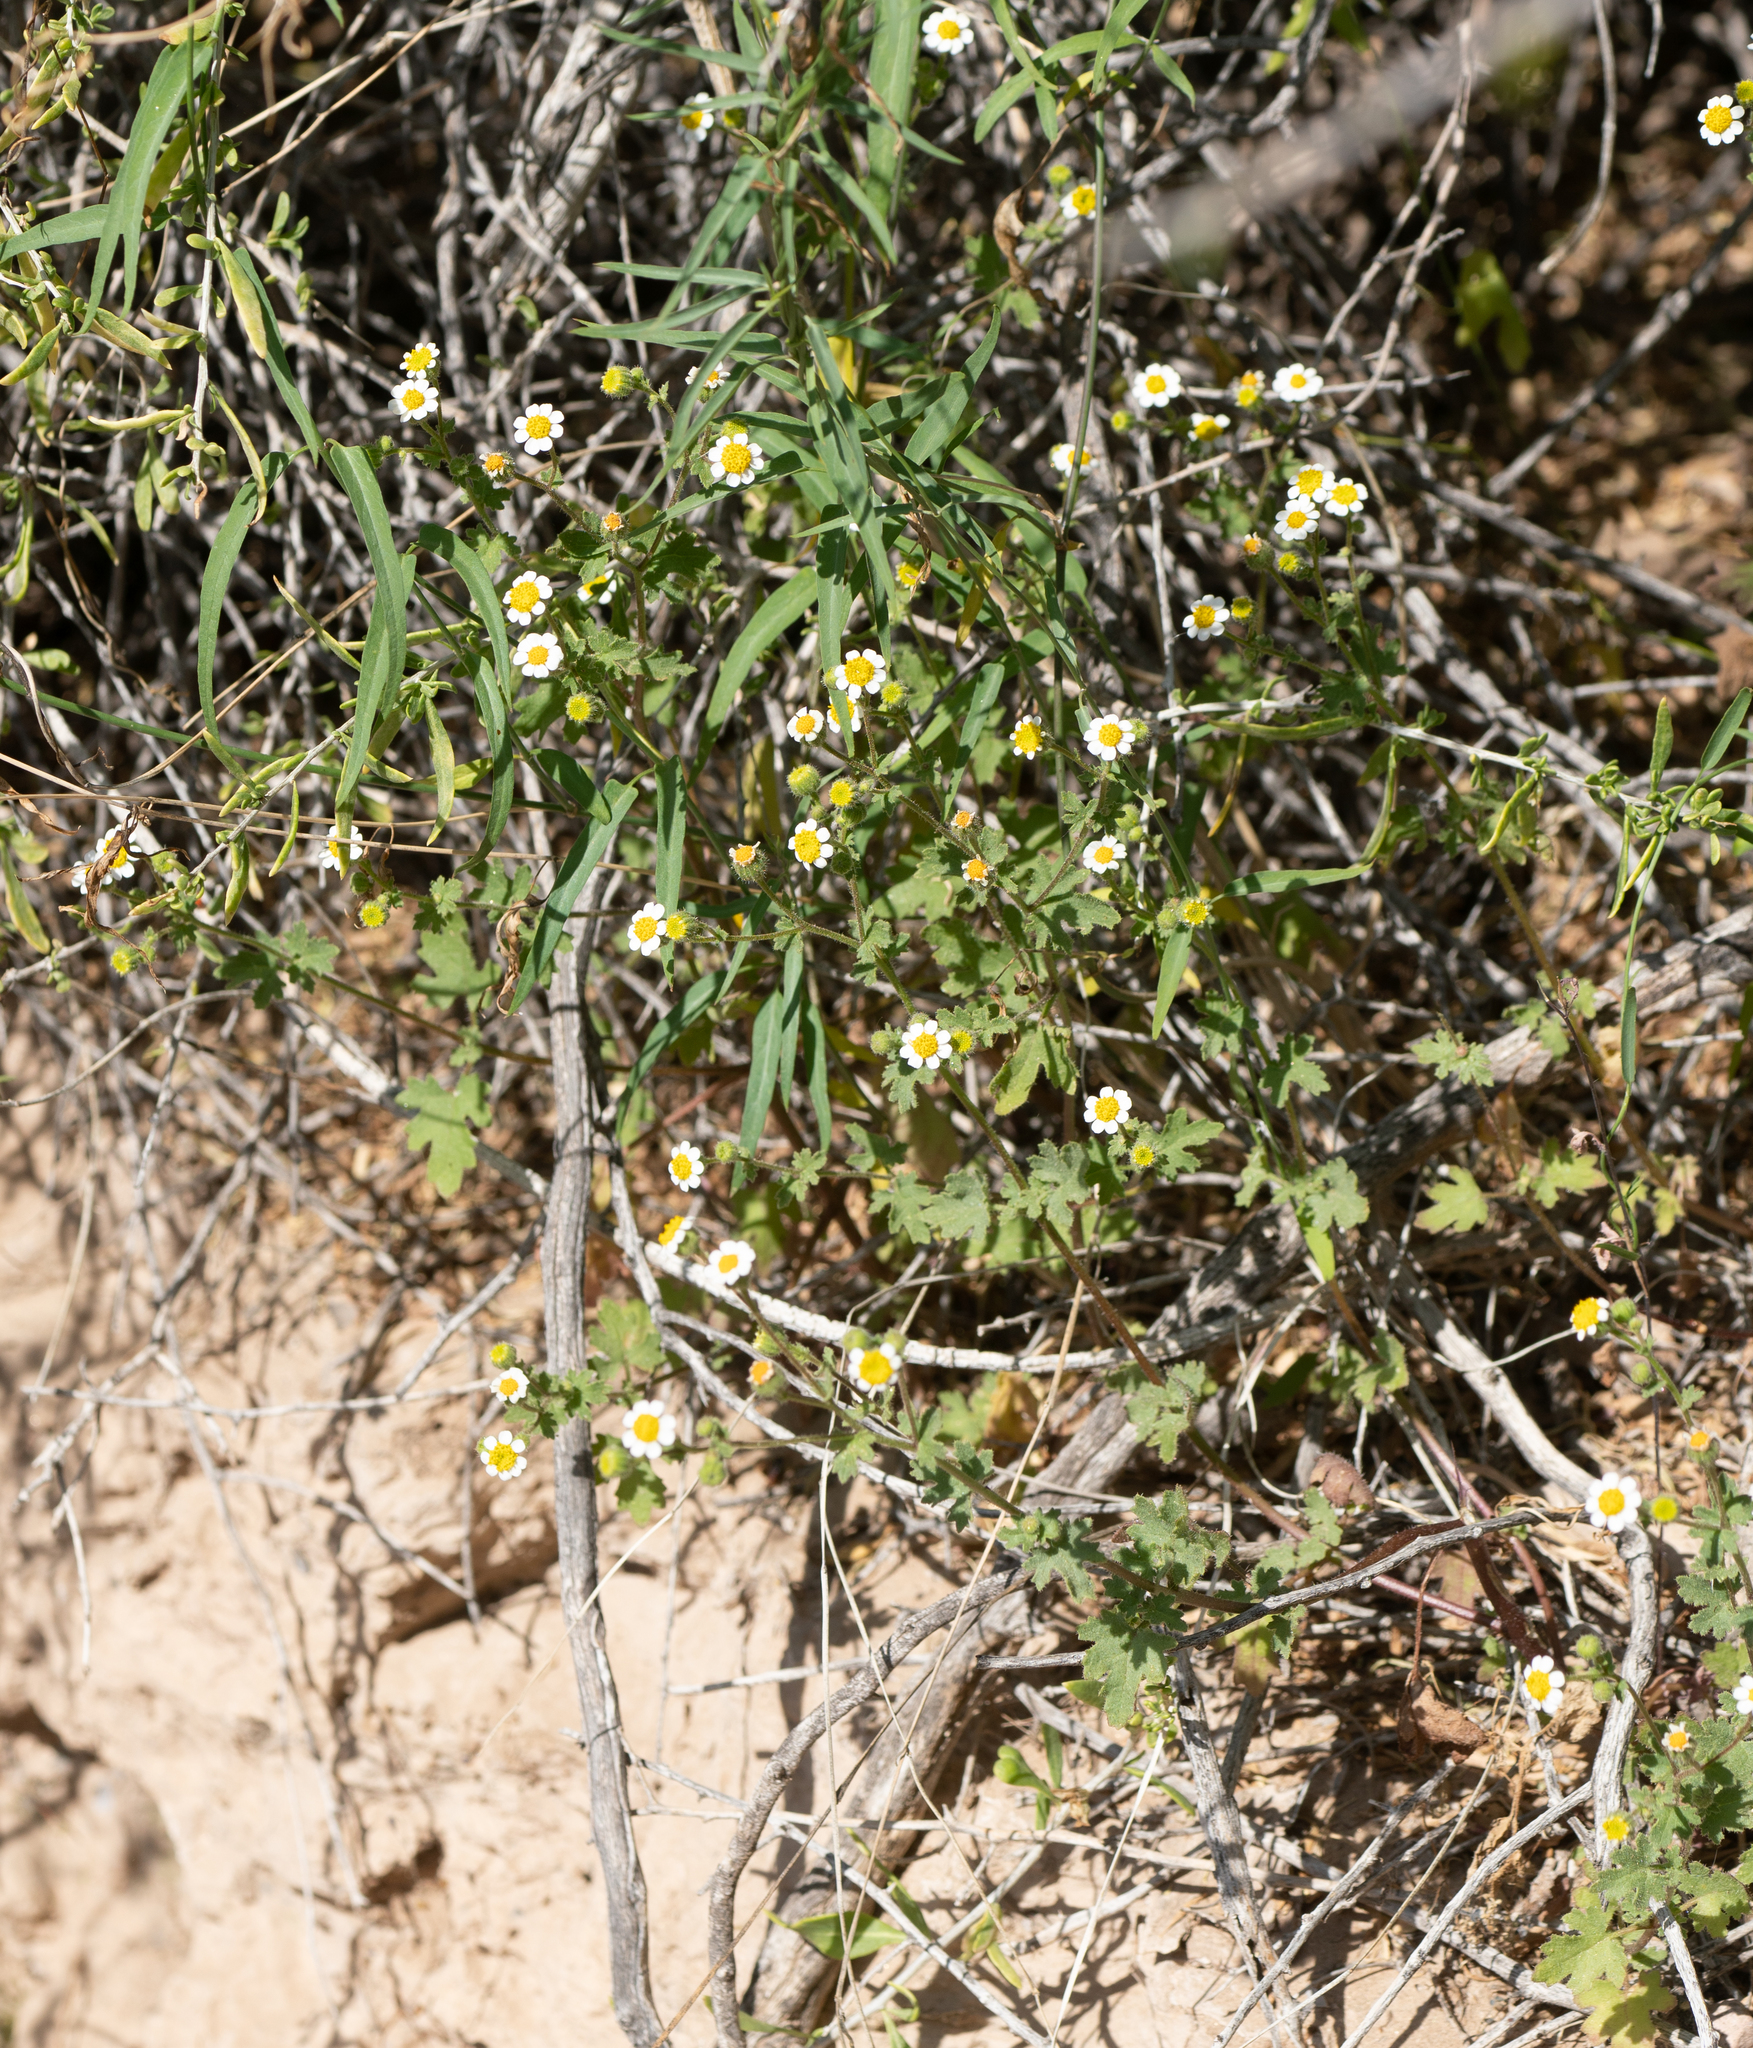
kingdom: Plantae
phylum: Tracheophyta
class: Magnoliopsida
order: Asterales
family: Asteraceae
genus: Laphamia
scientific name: Laphamia emoryi
